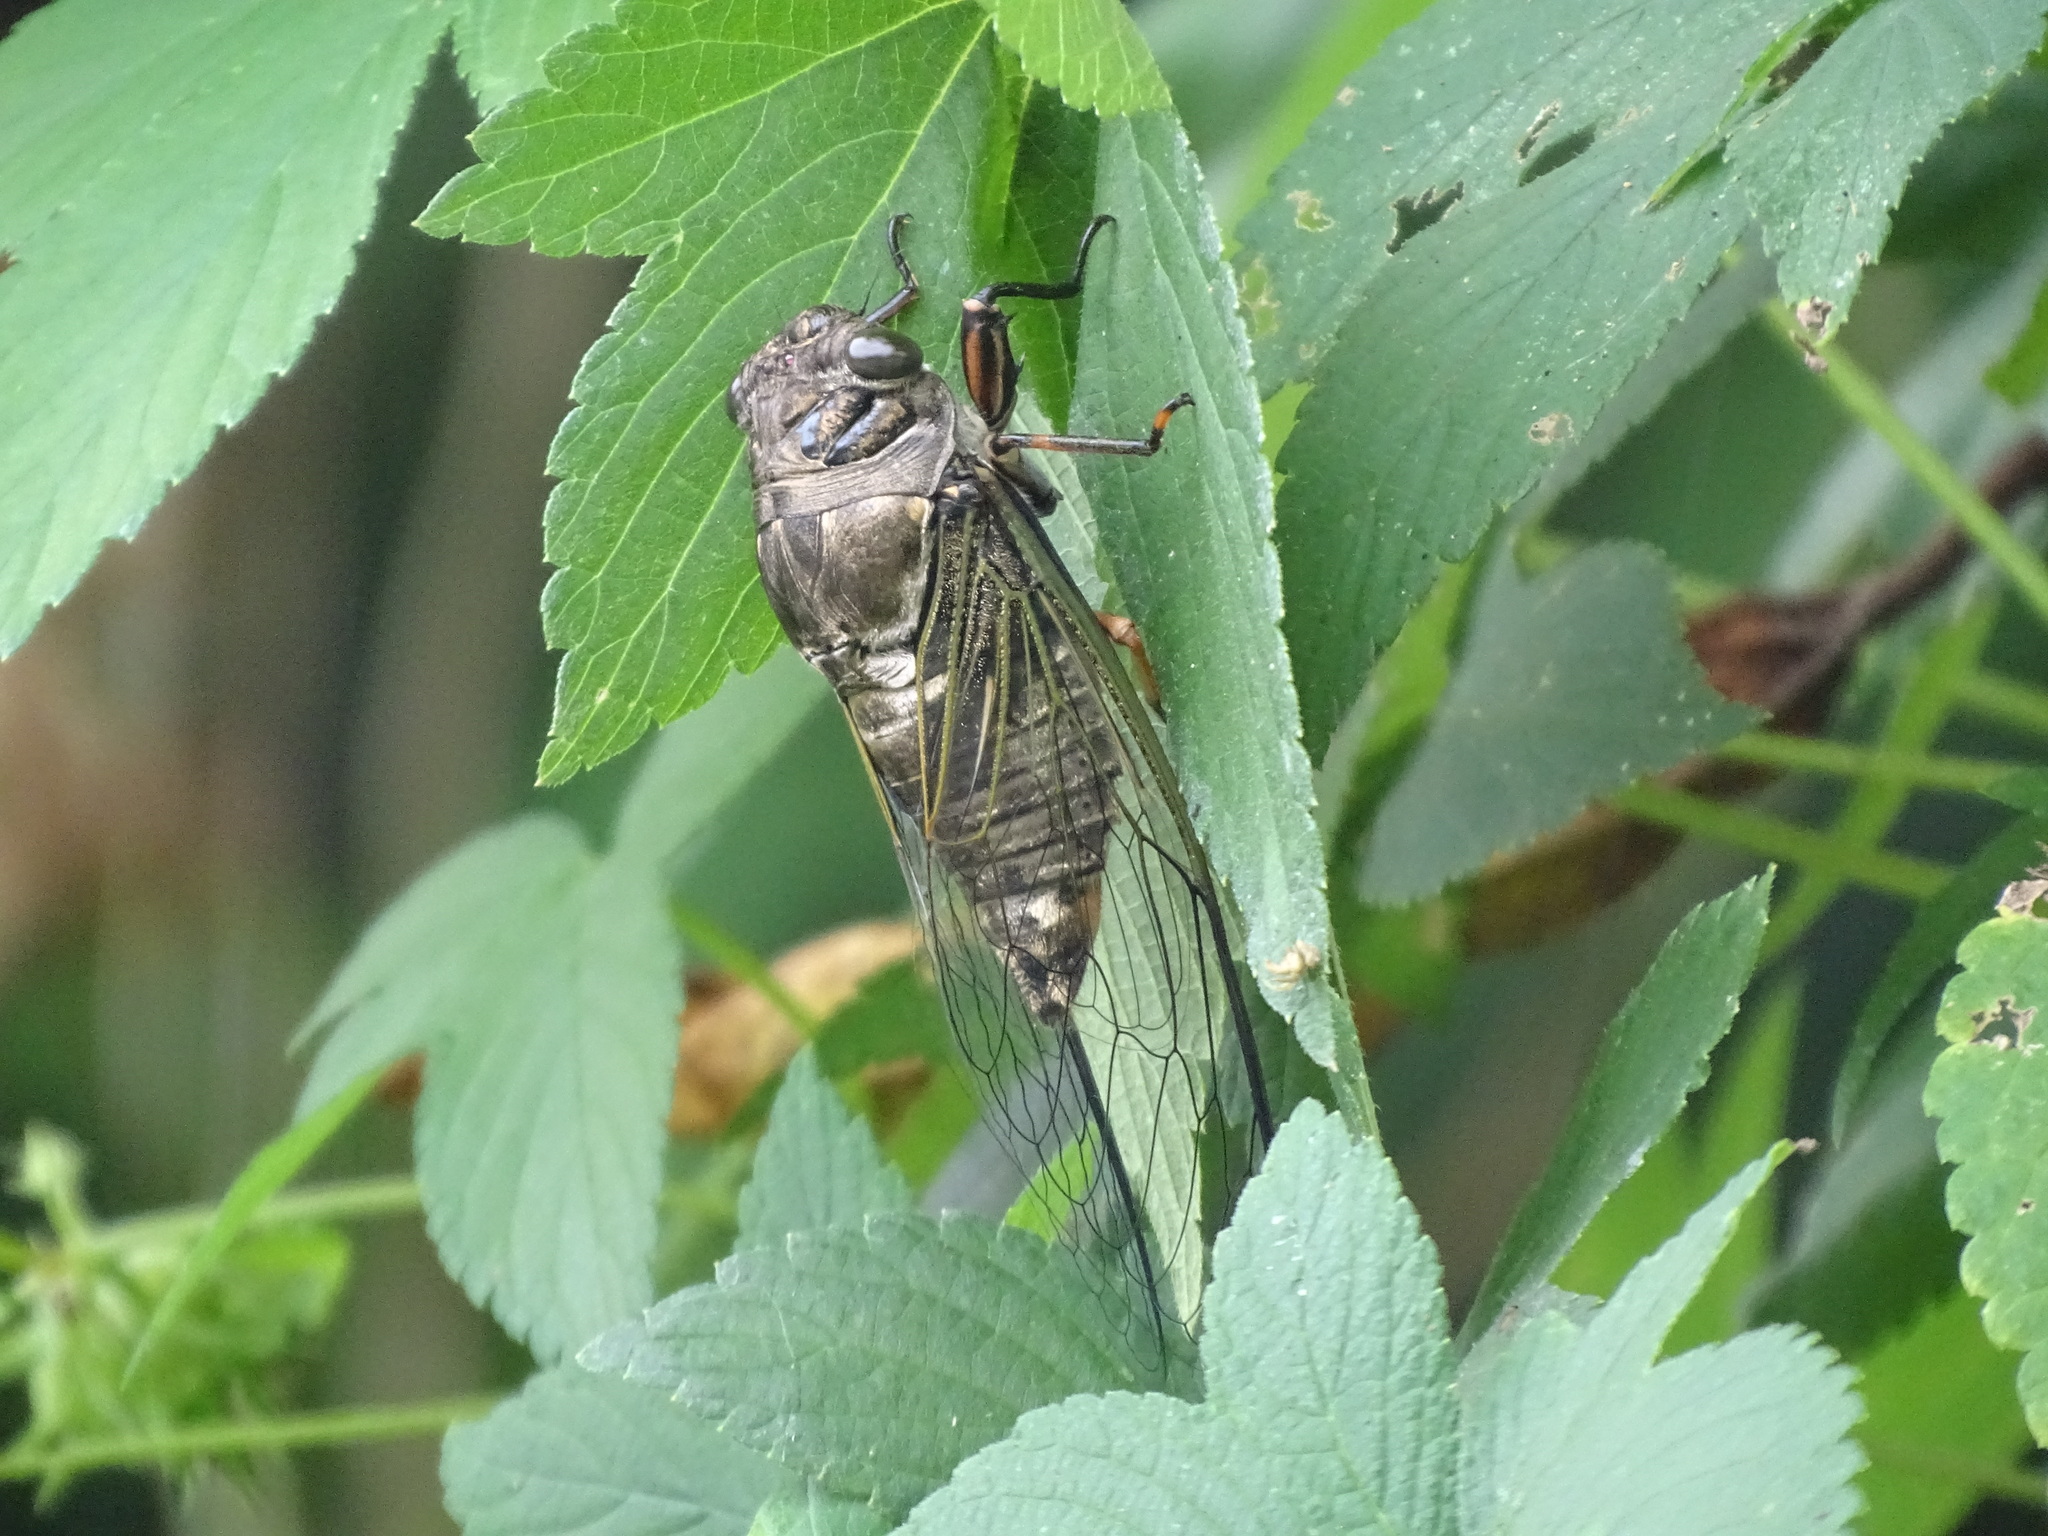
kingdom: Animalia
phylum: Arthropoda
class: Insecta
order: Hemiptera
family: Cicadidae
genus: Cryptotympana
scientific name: Cryptotympana takasagona
